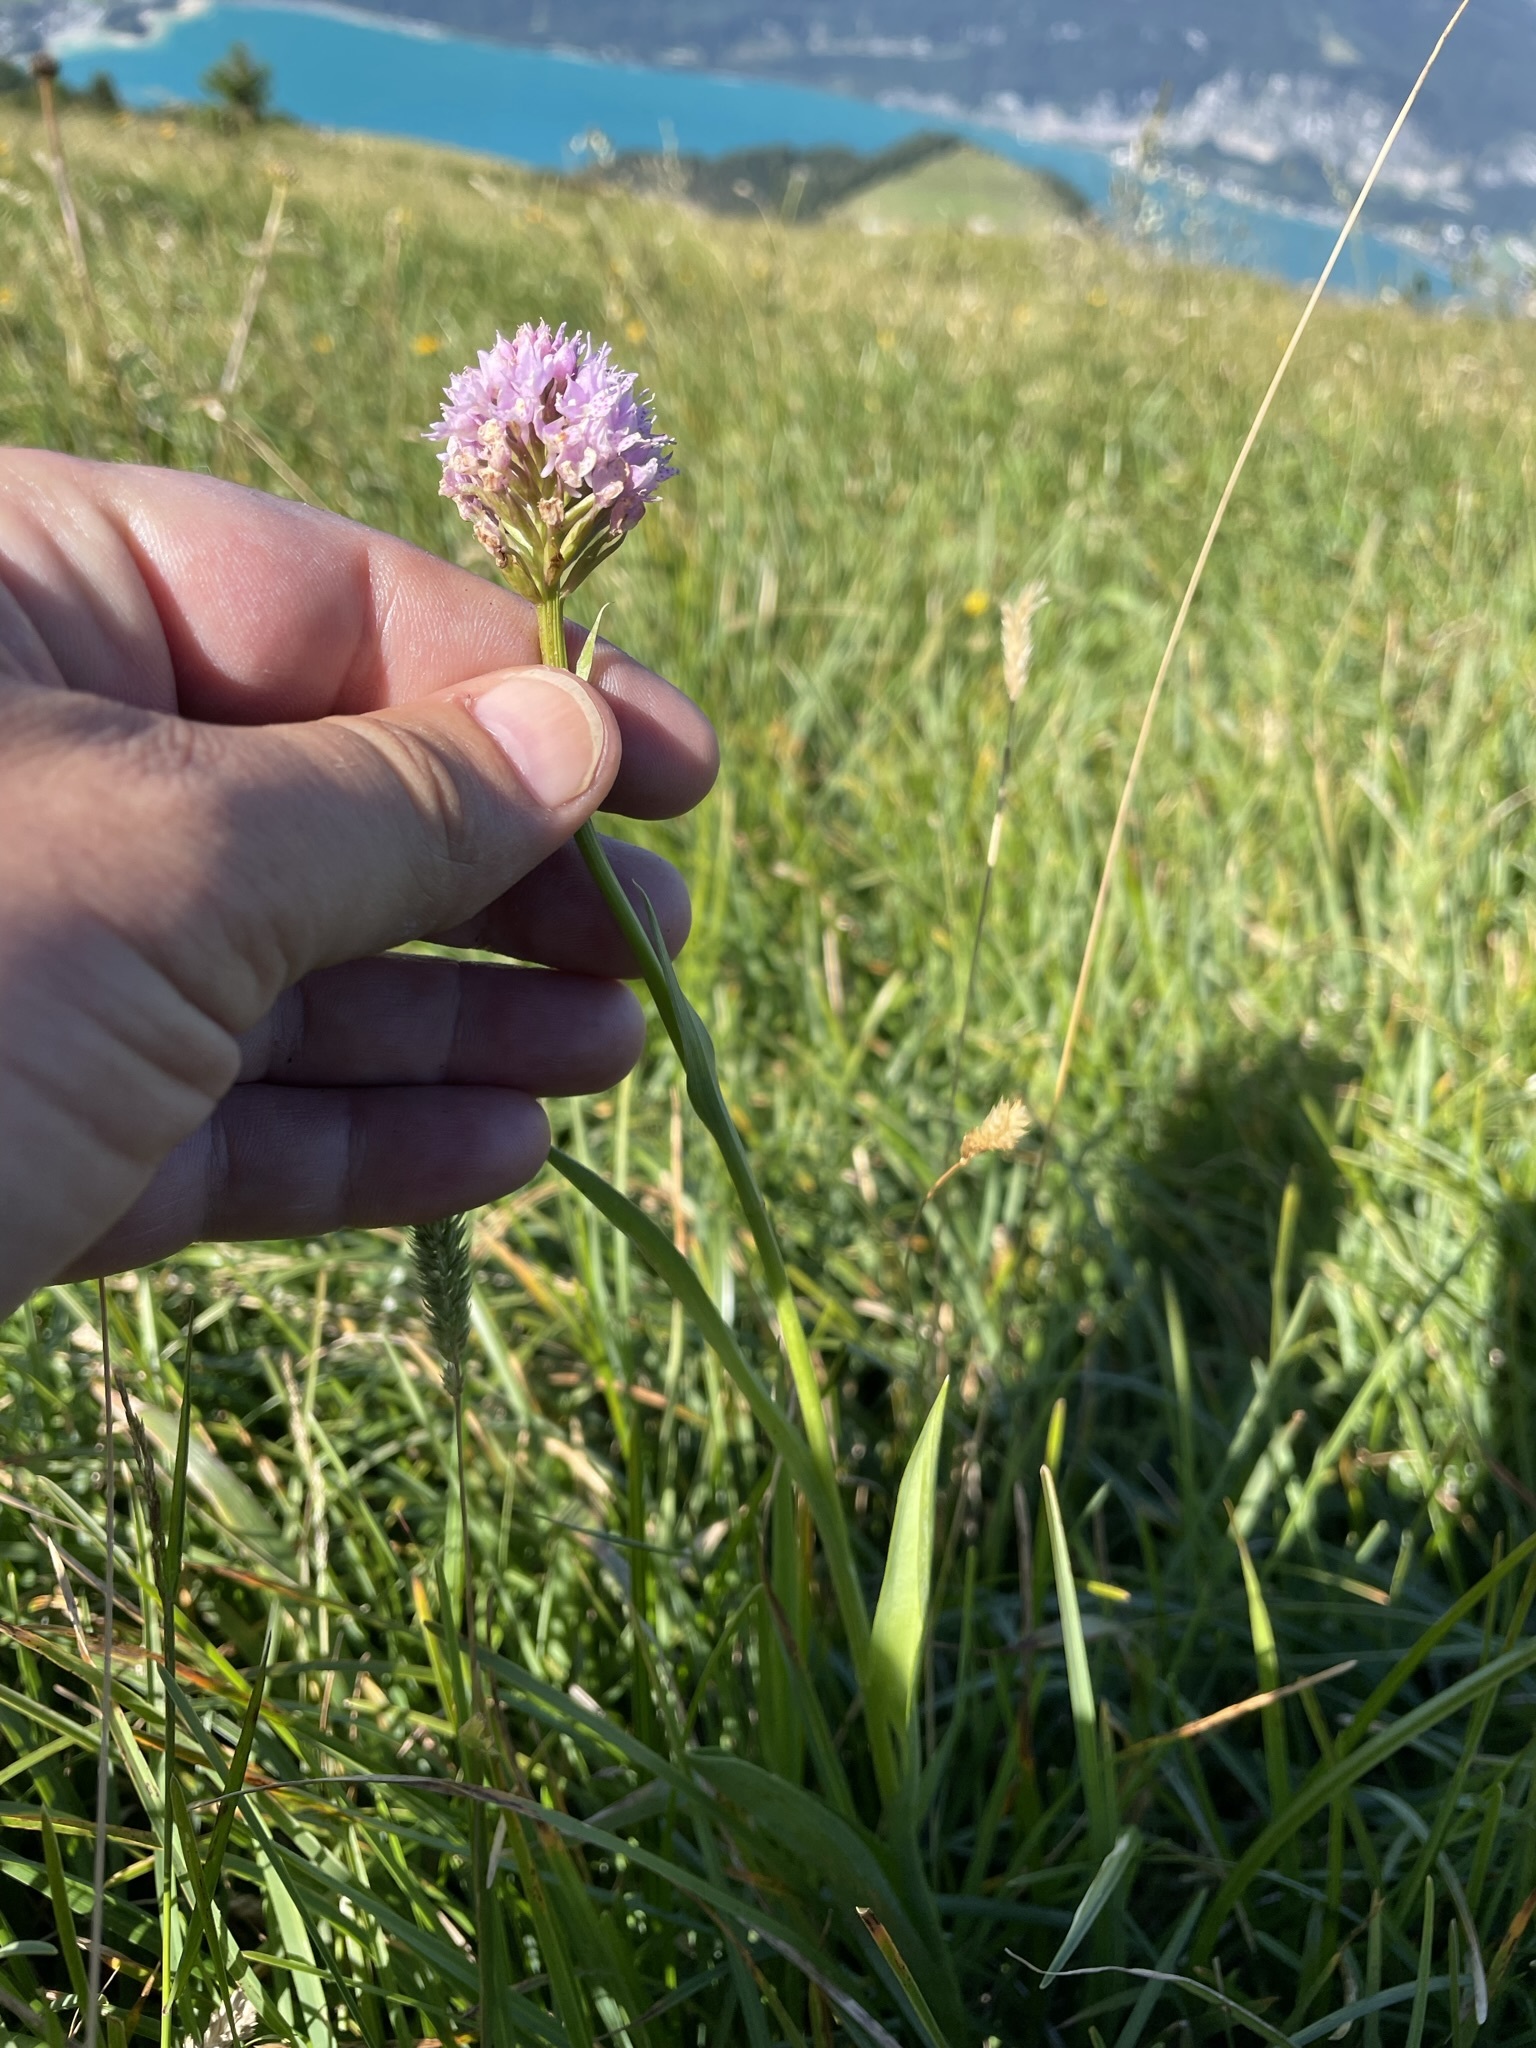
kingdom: Plantae
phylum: Tracheophyta
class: Liliopsida
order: Asparagales
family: Orchidaceae
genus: Traunsteinera
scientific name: Traunsteinera globosa
